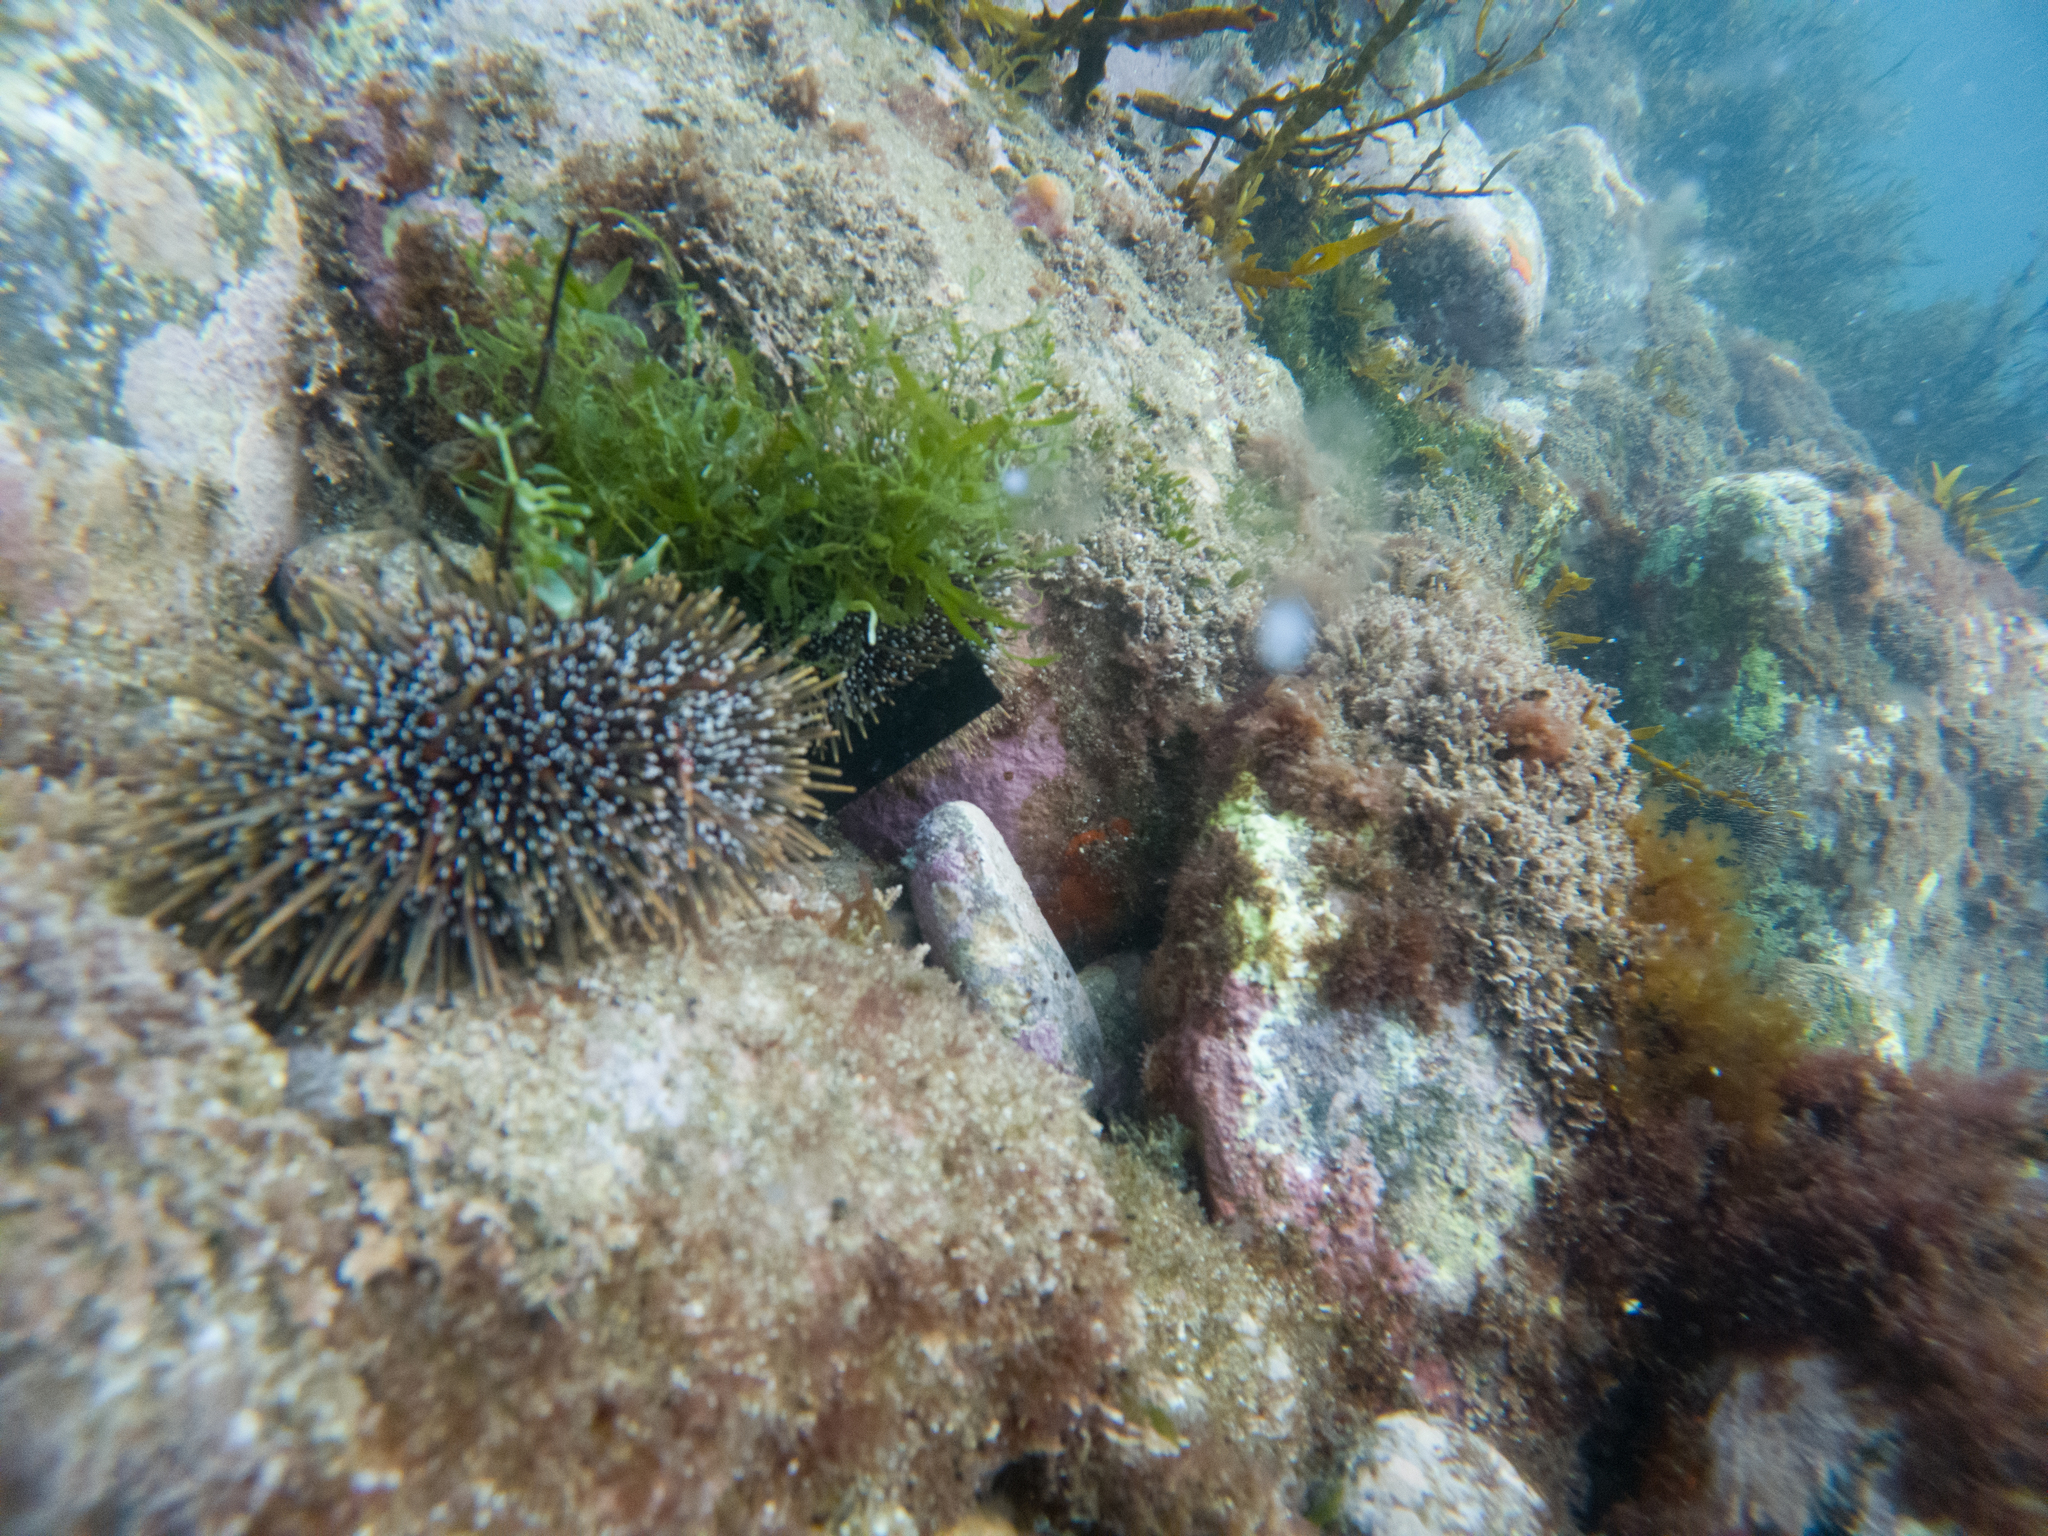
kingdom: Animalia
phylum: Echinodermata
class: Echinoidea
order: Camarodonta
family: Echinometridae
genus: Evechinus
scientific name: Evechinus chloroticus
